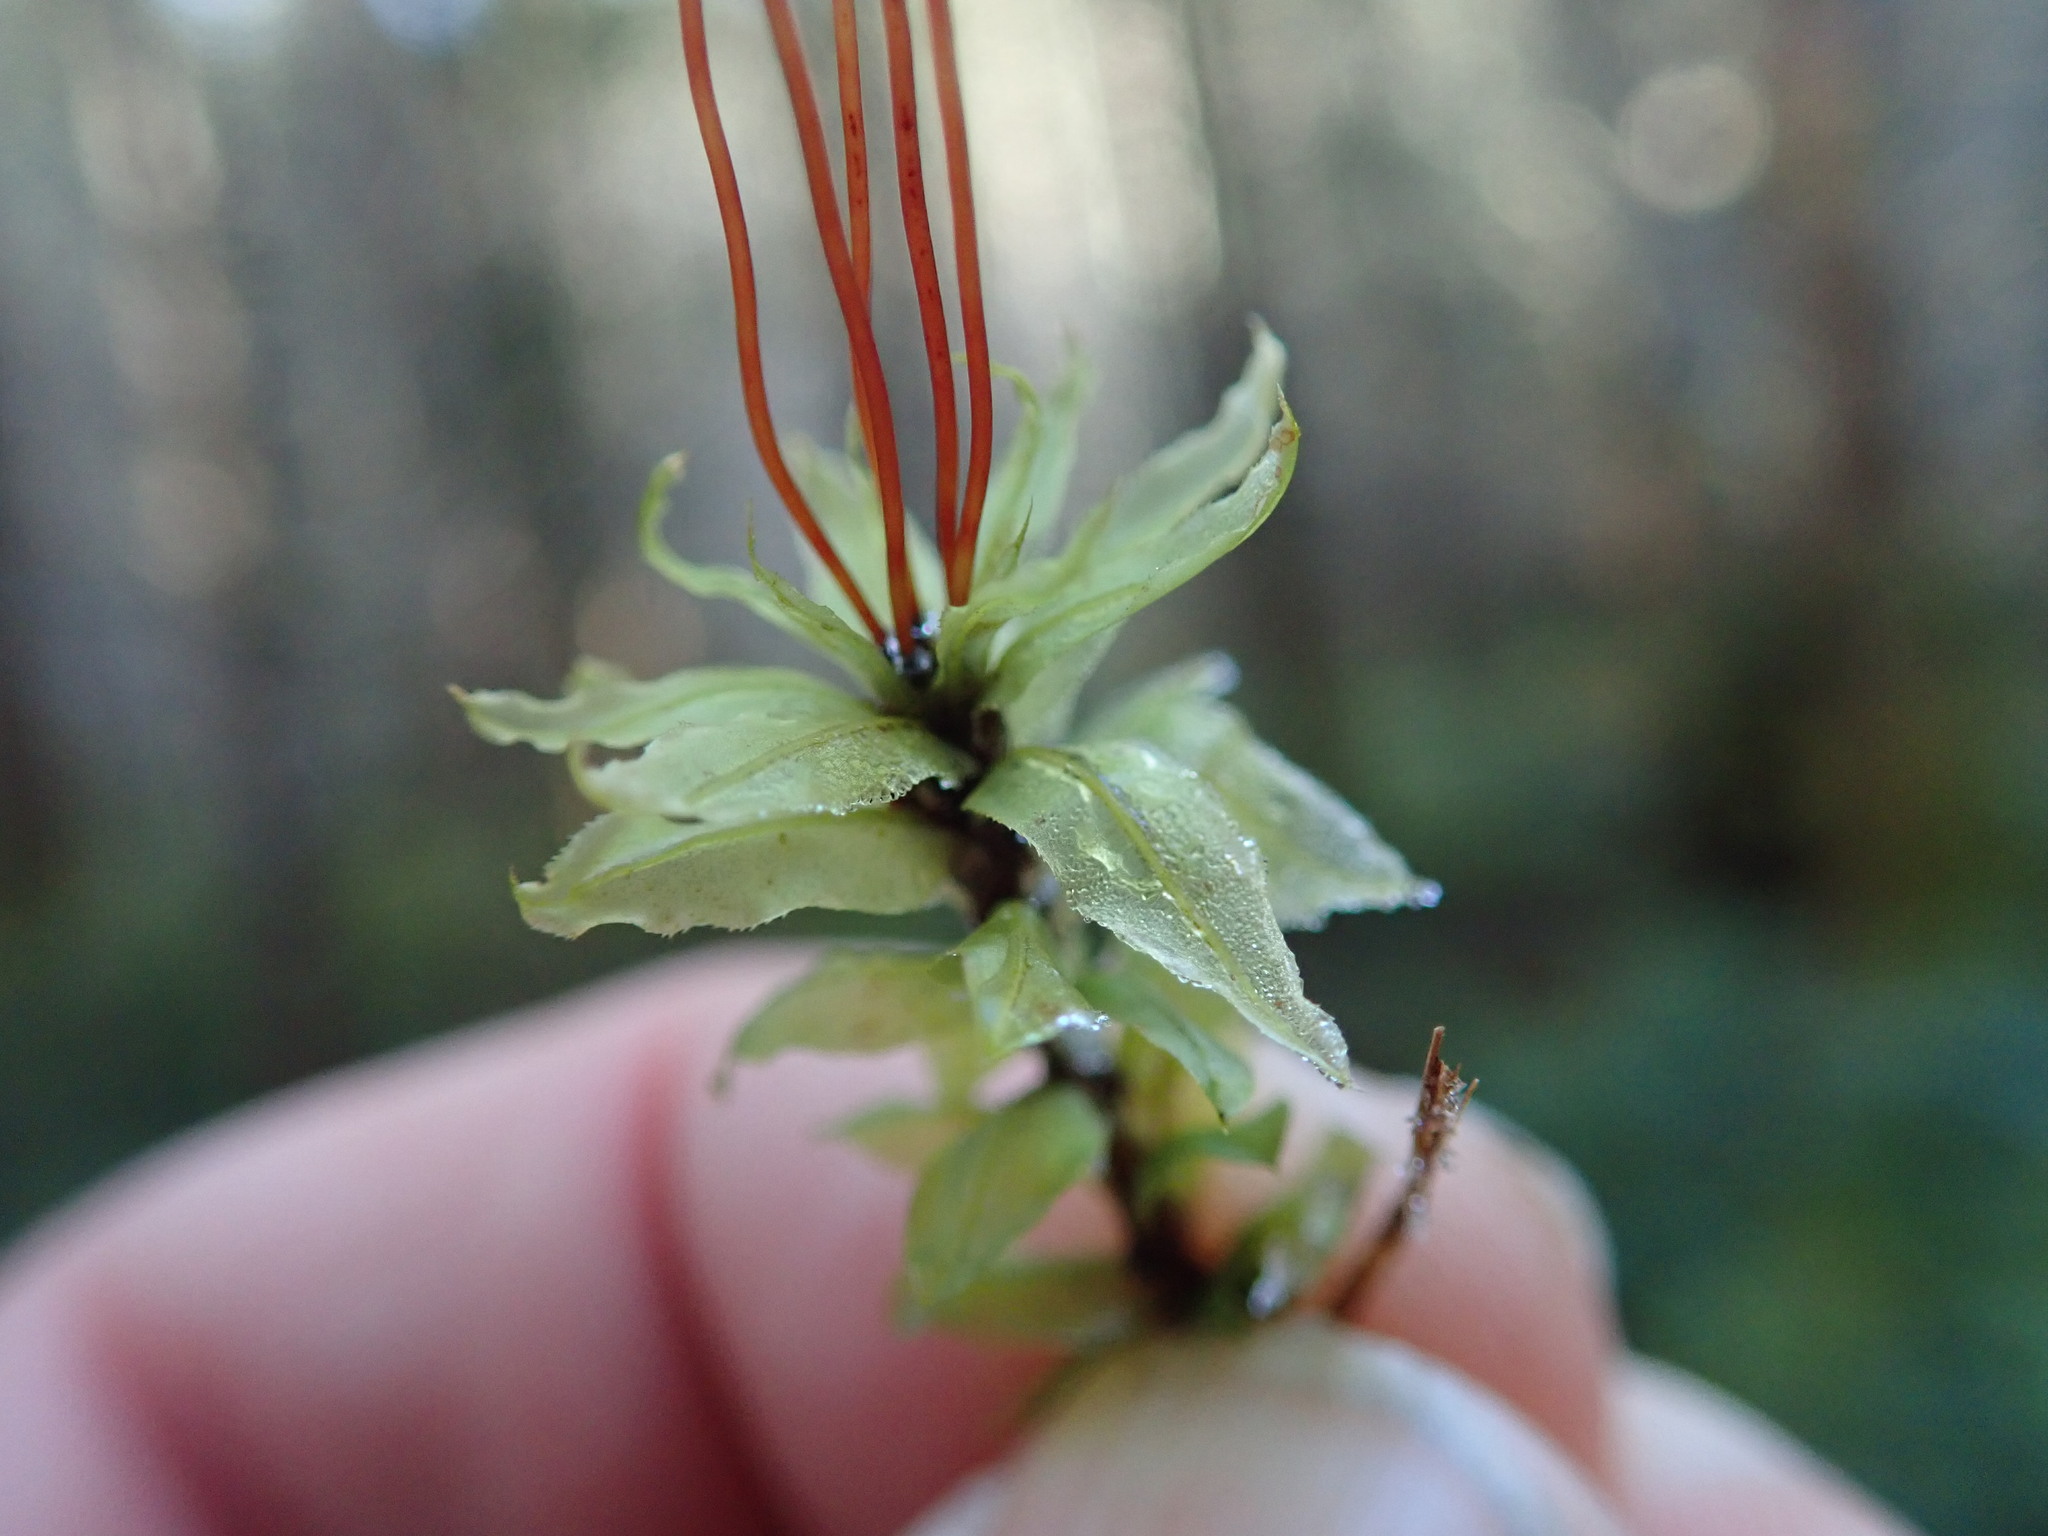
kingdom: Plantae
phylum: Bryophyta
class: Bryopsida
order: Bryales
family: Mniaceae
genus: Plagiomnium
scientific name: Plagiomnium insigne
